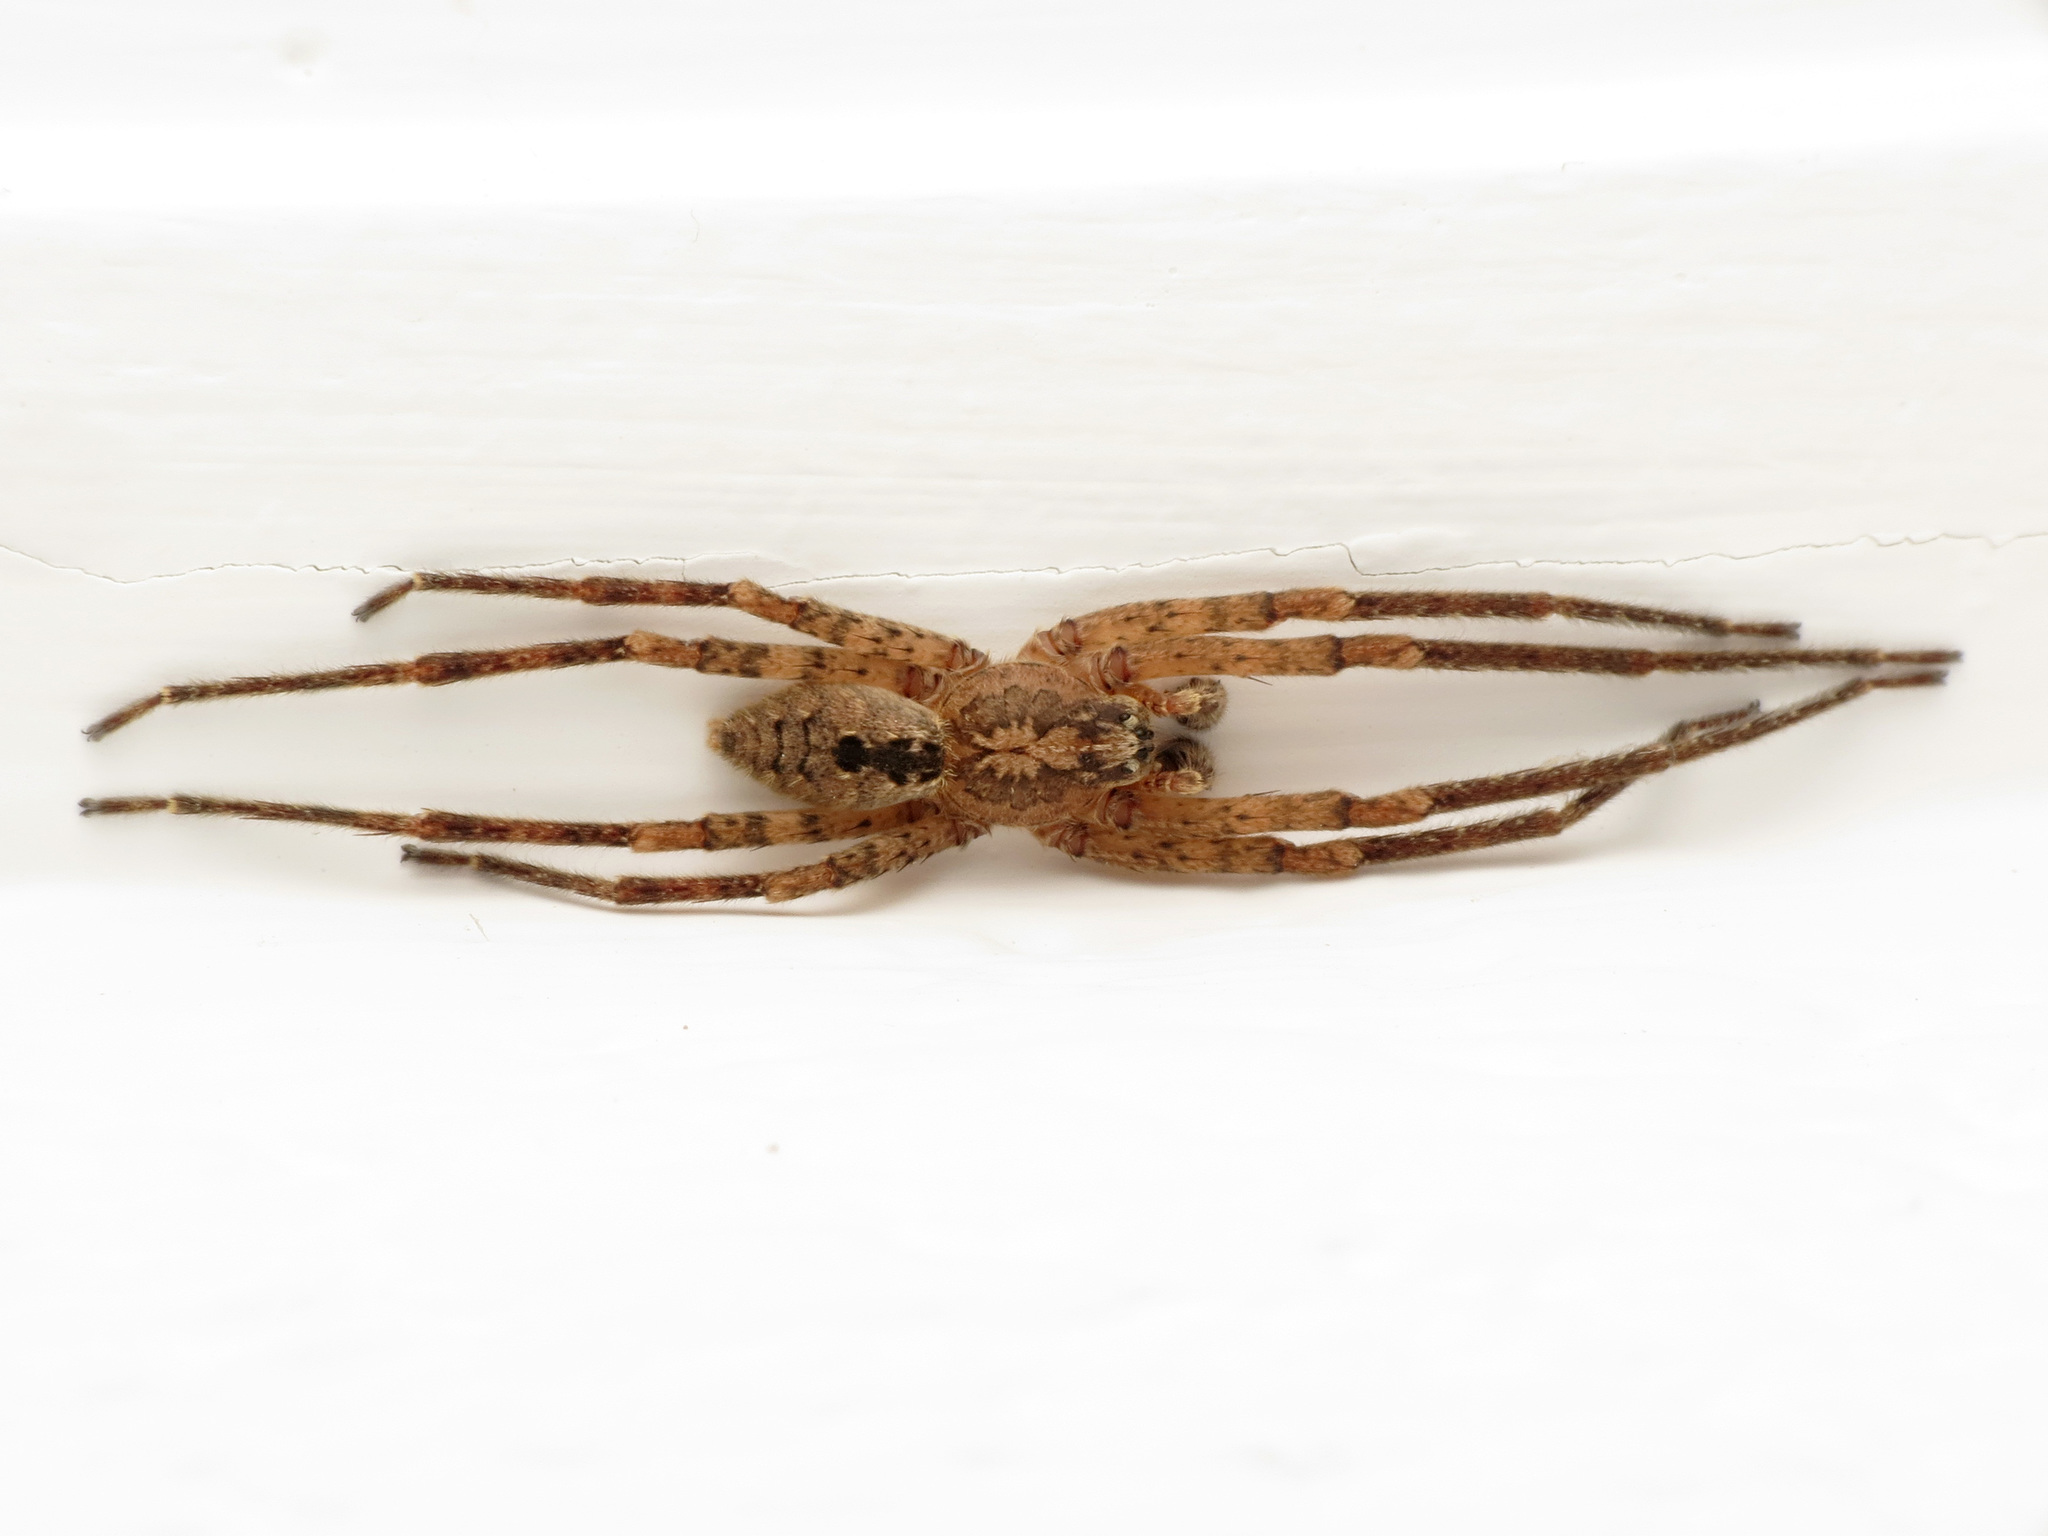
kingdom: Animalia
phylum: Arthropoda
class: Arachnida
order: Araneae
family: Zoropsidae
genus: Zoropsis
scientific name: Zoropsis spinimana
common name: Zoropsid spider
